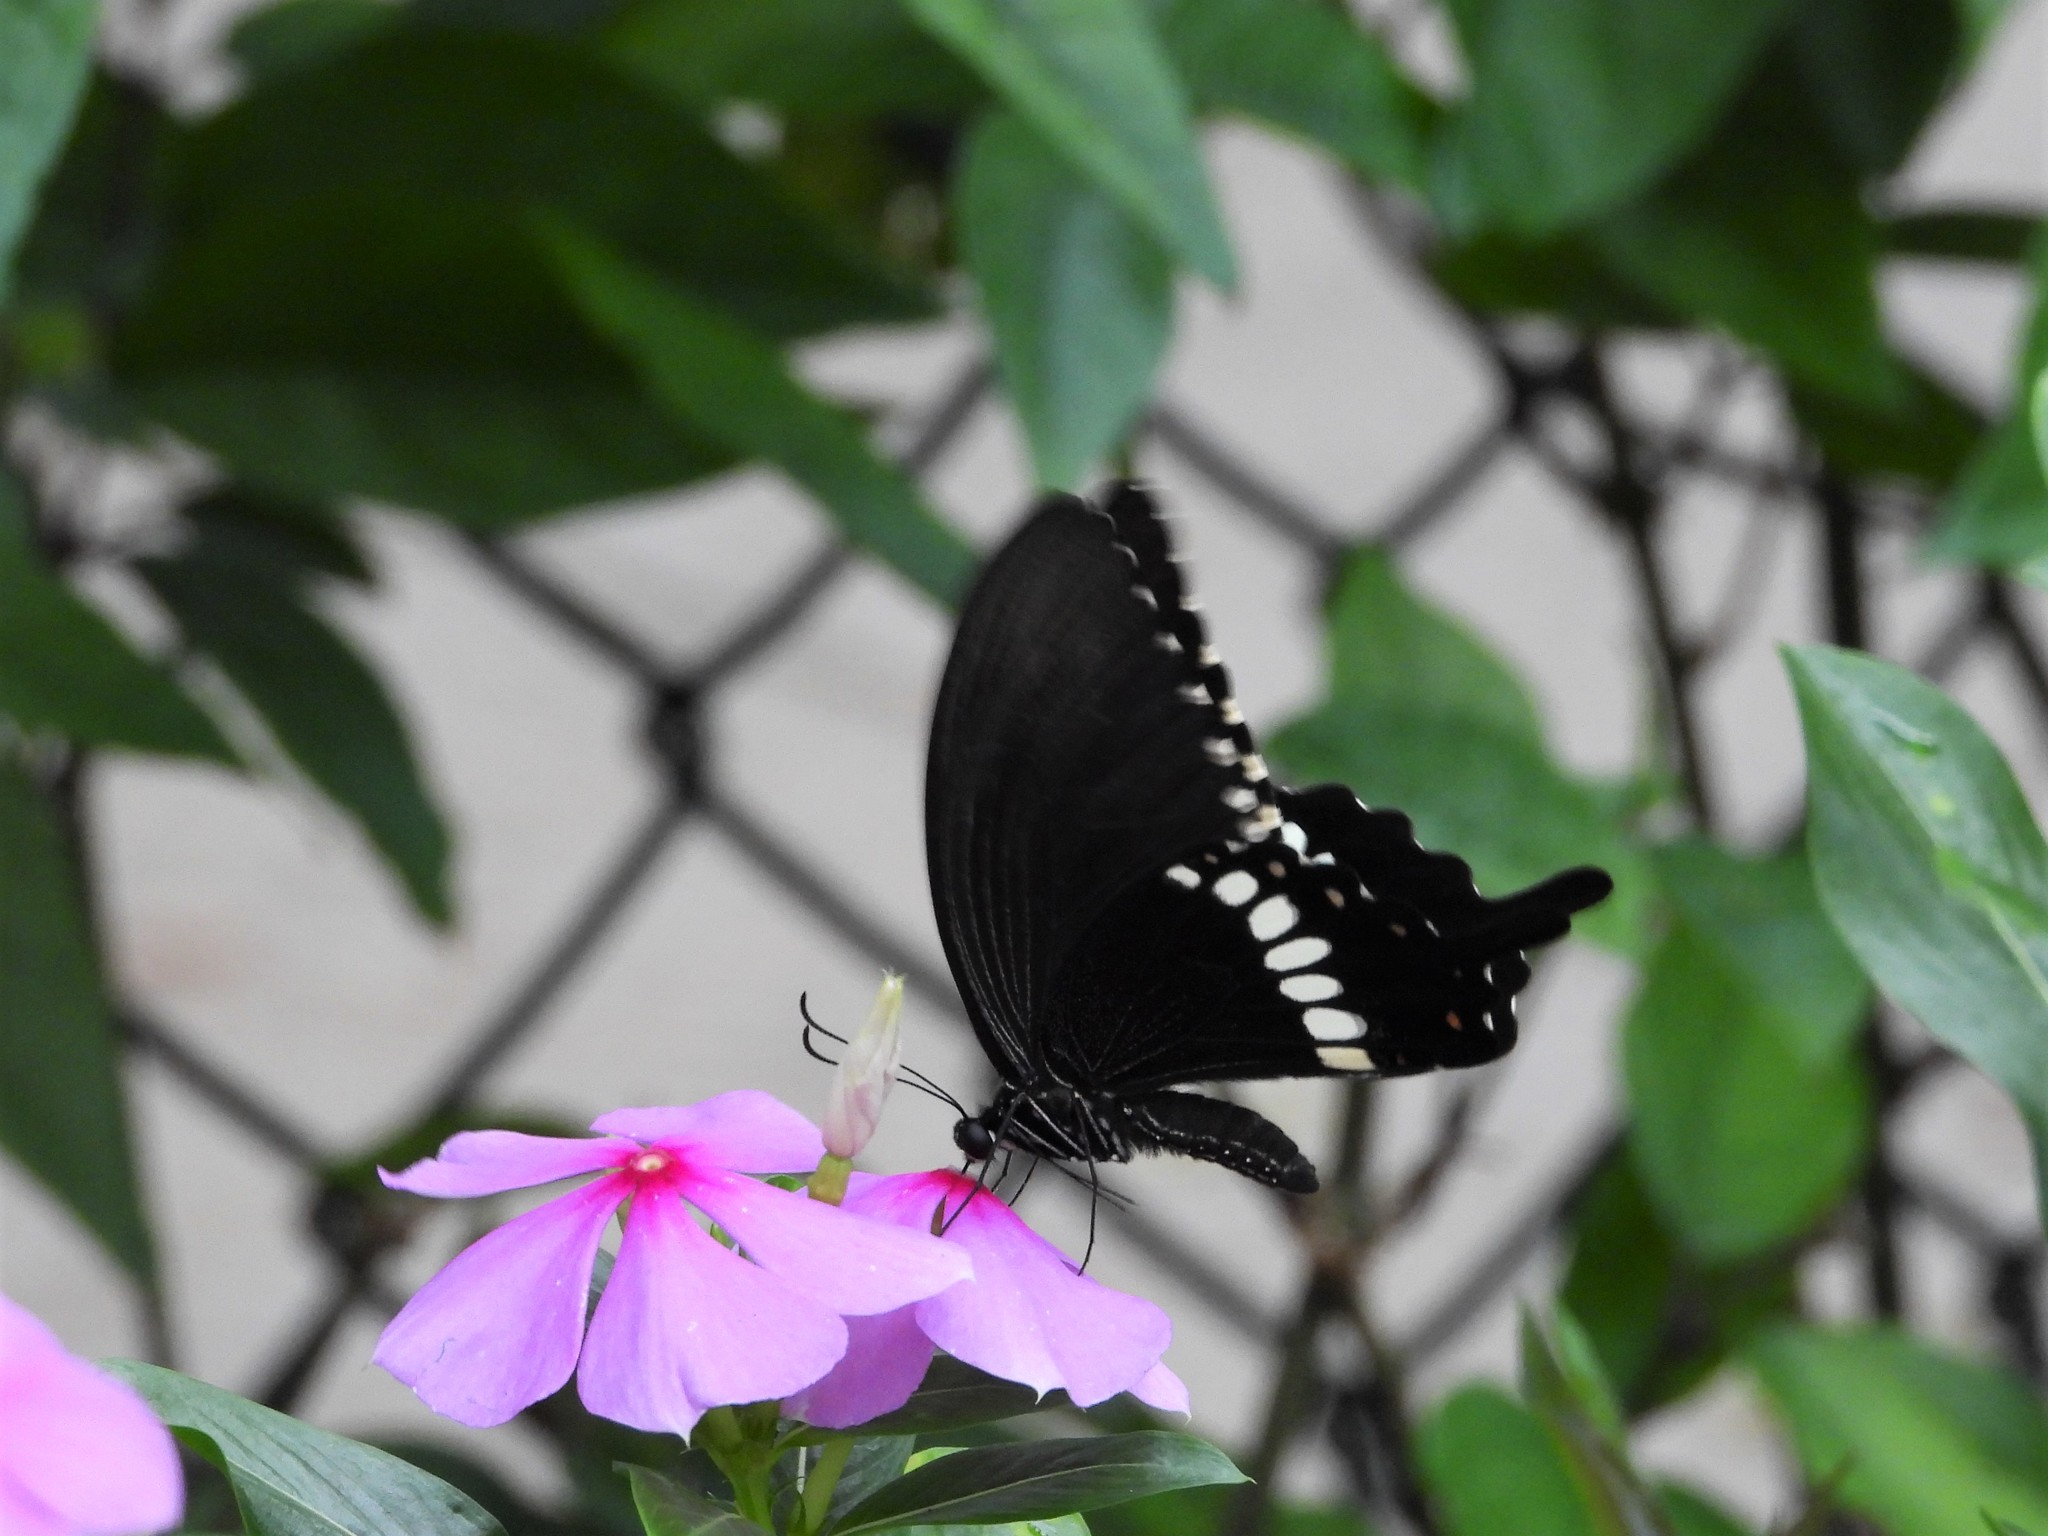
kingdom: Animalia
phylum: Arthropoda
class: Insecta
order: Lepidoptera
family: Papilionidae
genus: Papilio
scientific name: Papilio polytes
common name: Common mormon
